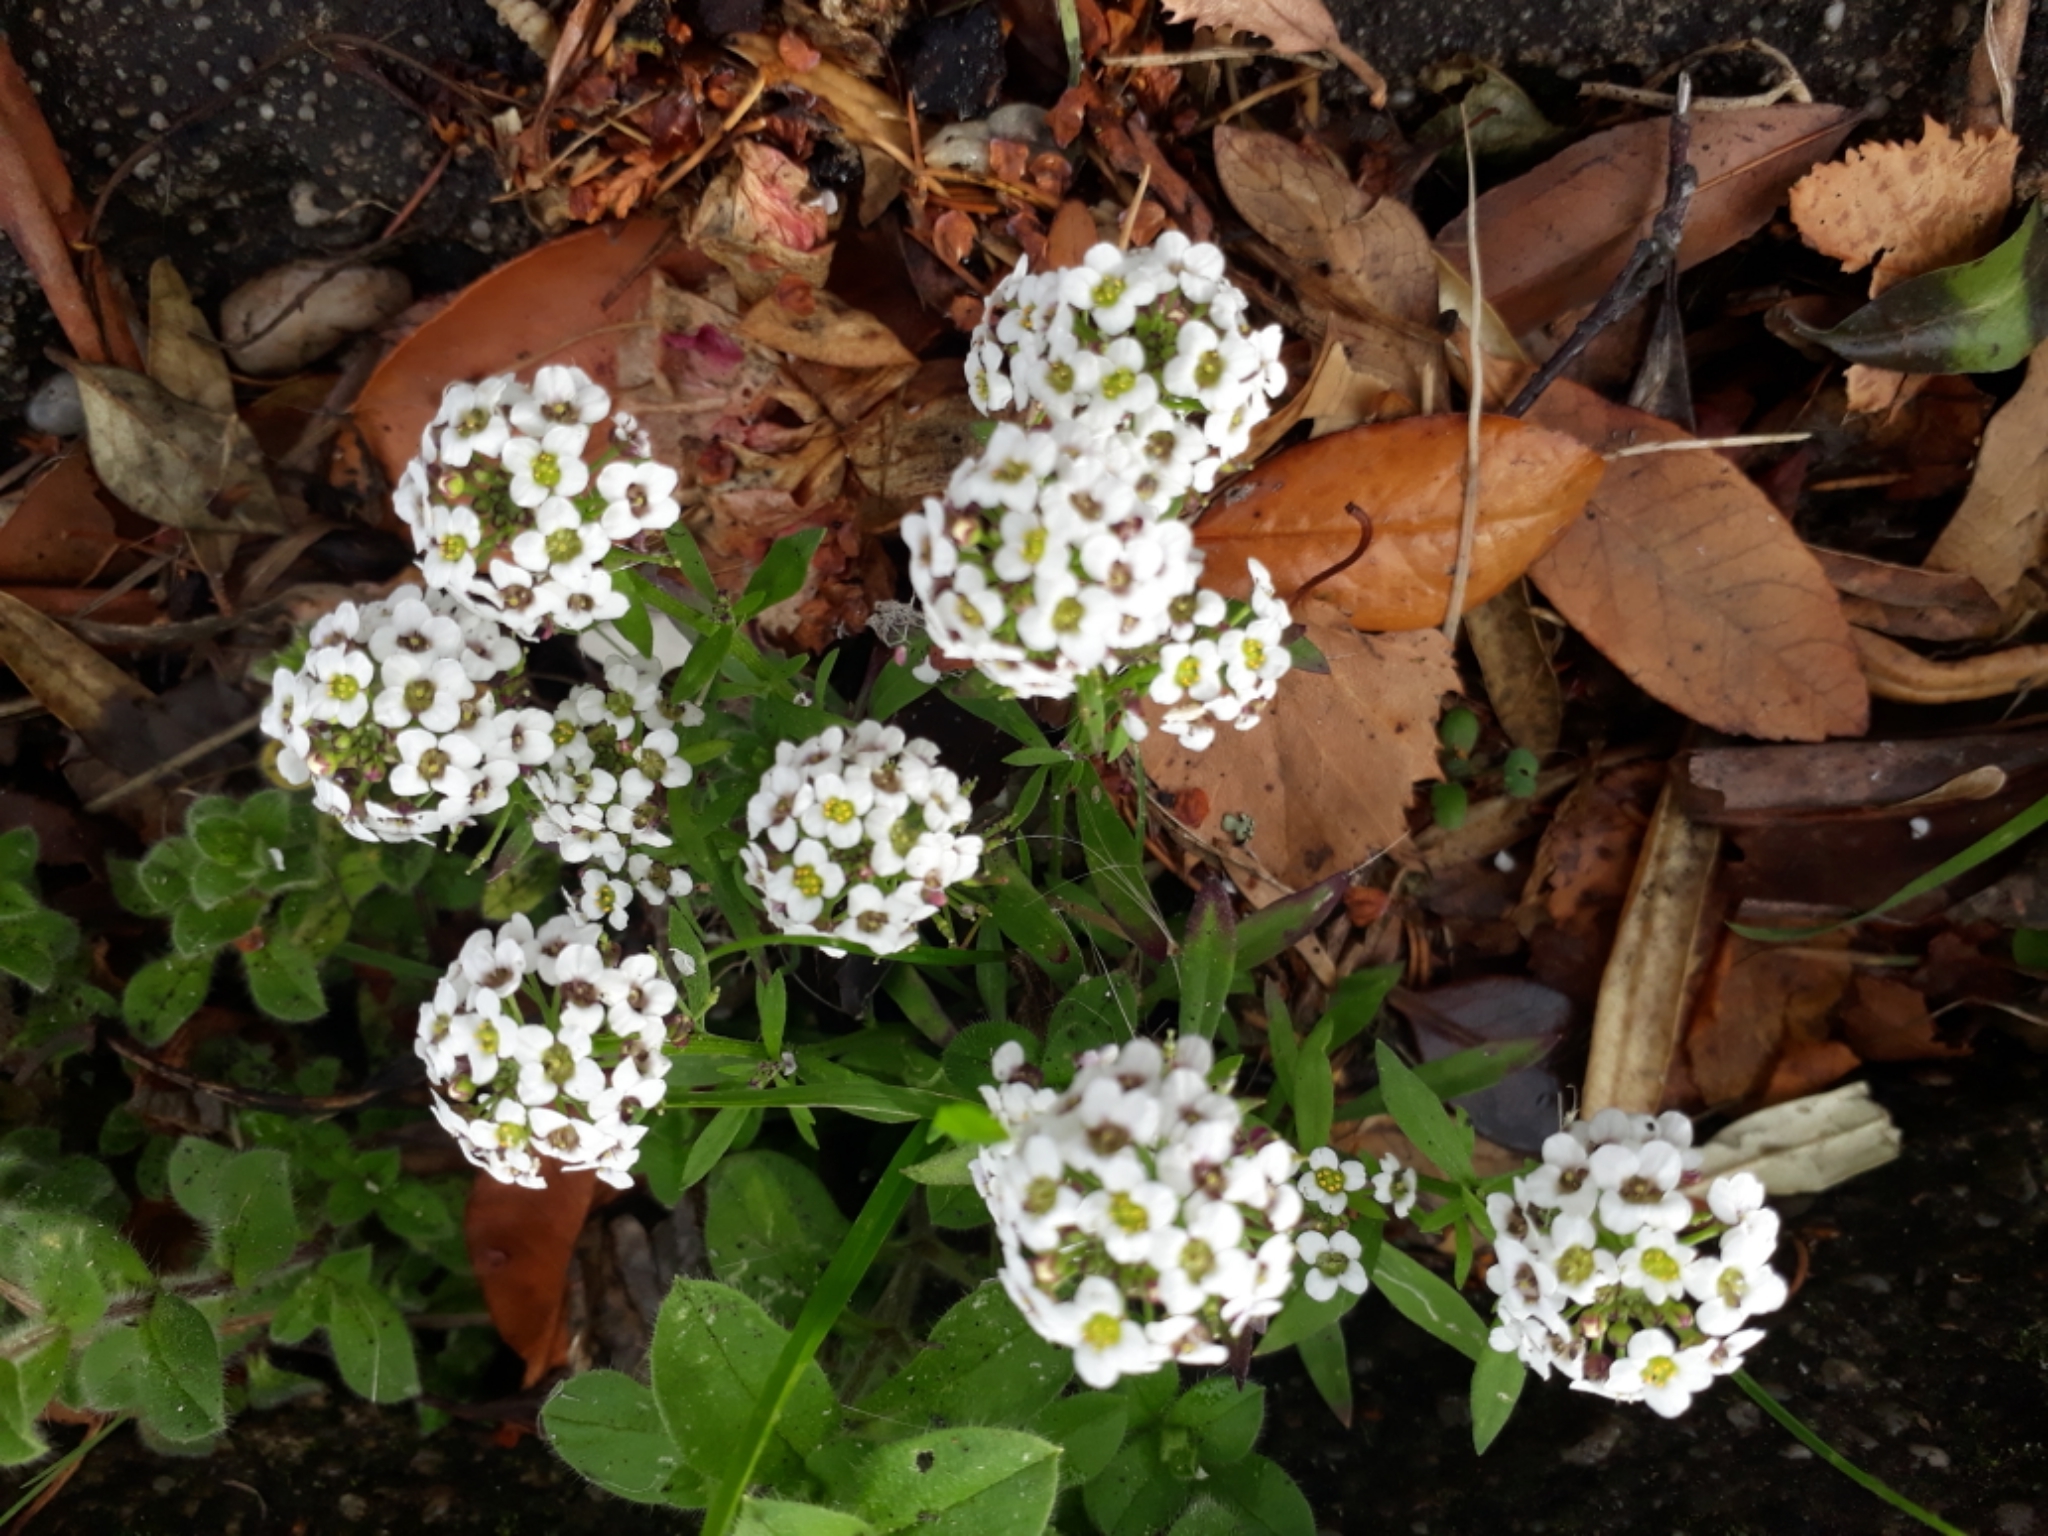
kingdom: Plantae
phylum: Tracheophyta
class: Magnoliopsida
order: Brassicales
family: Brassicaceae
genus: Lobularia
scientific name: Lobularia maritima
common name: Sweet alison
